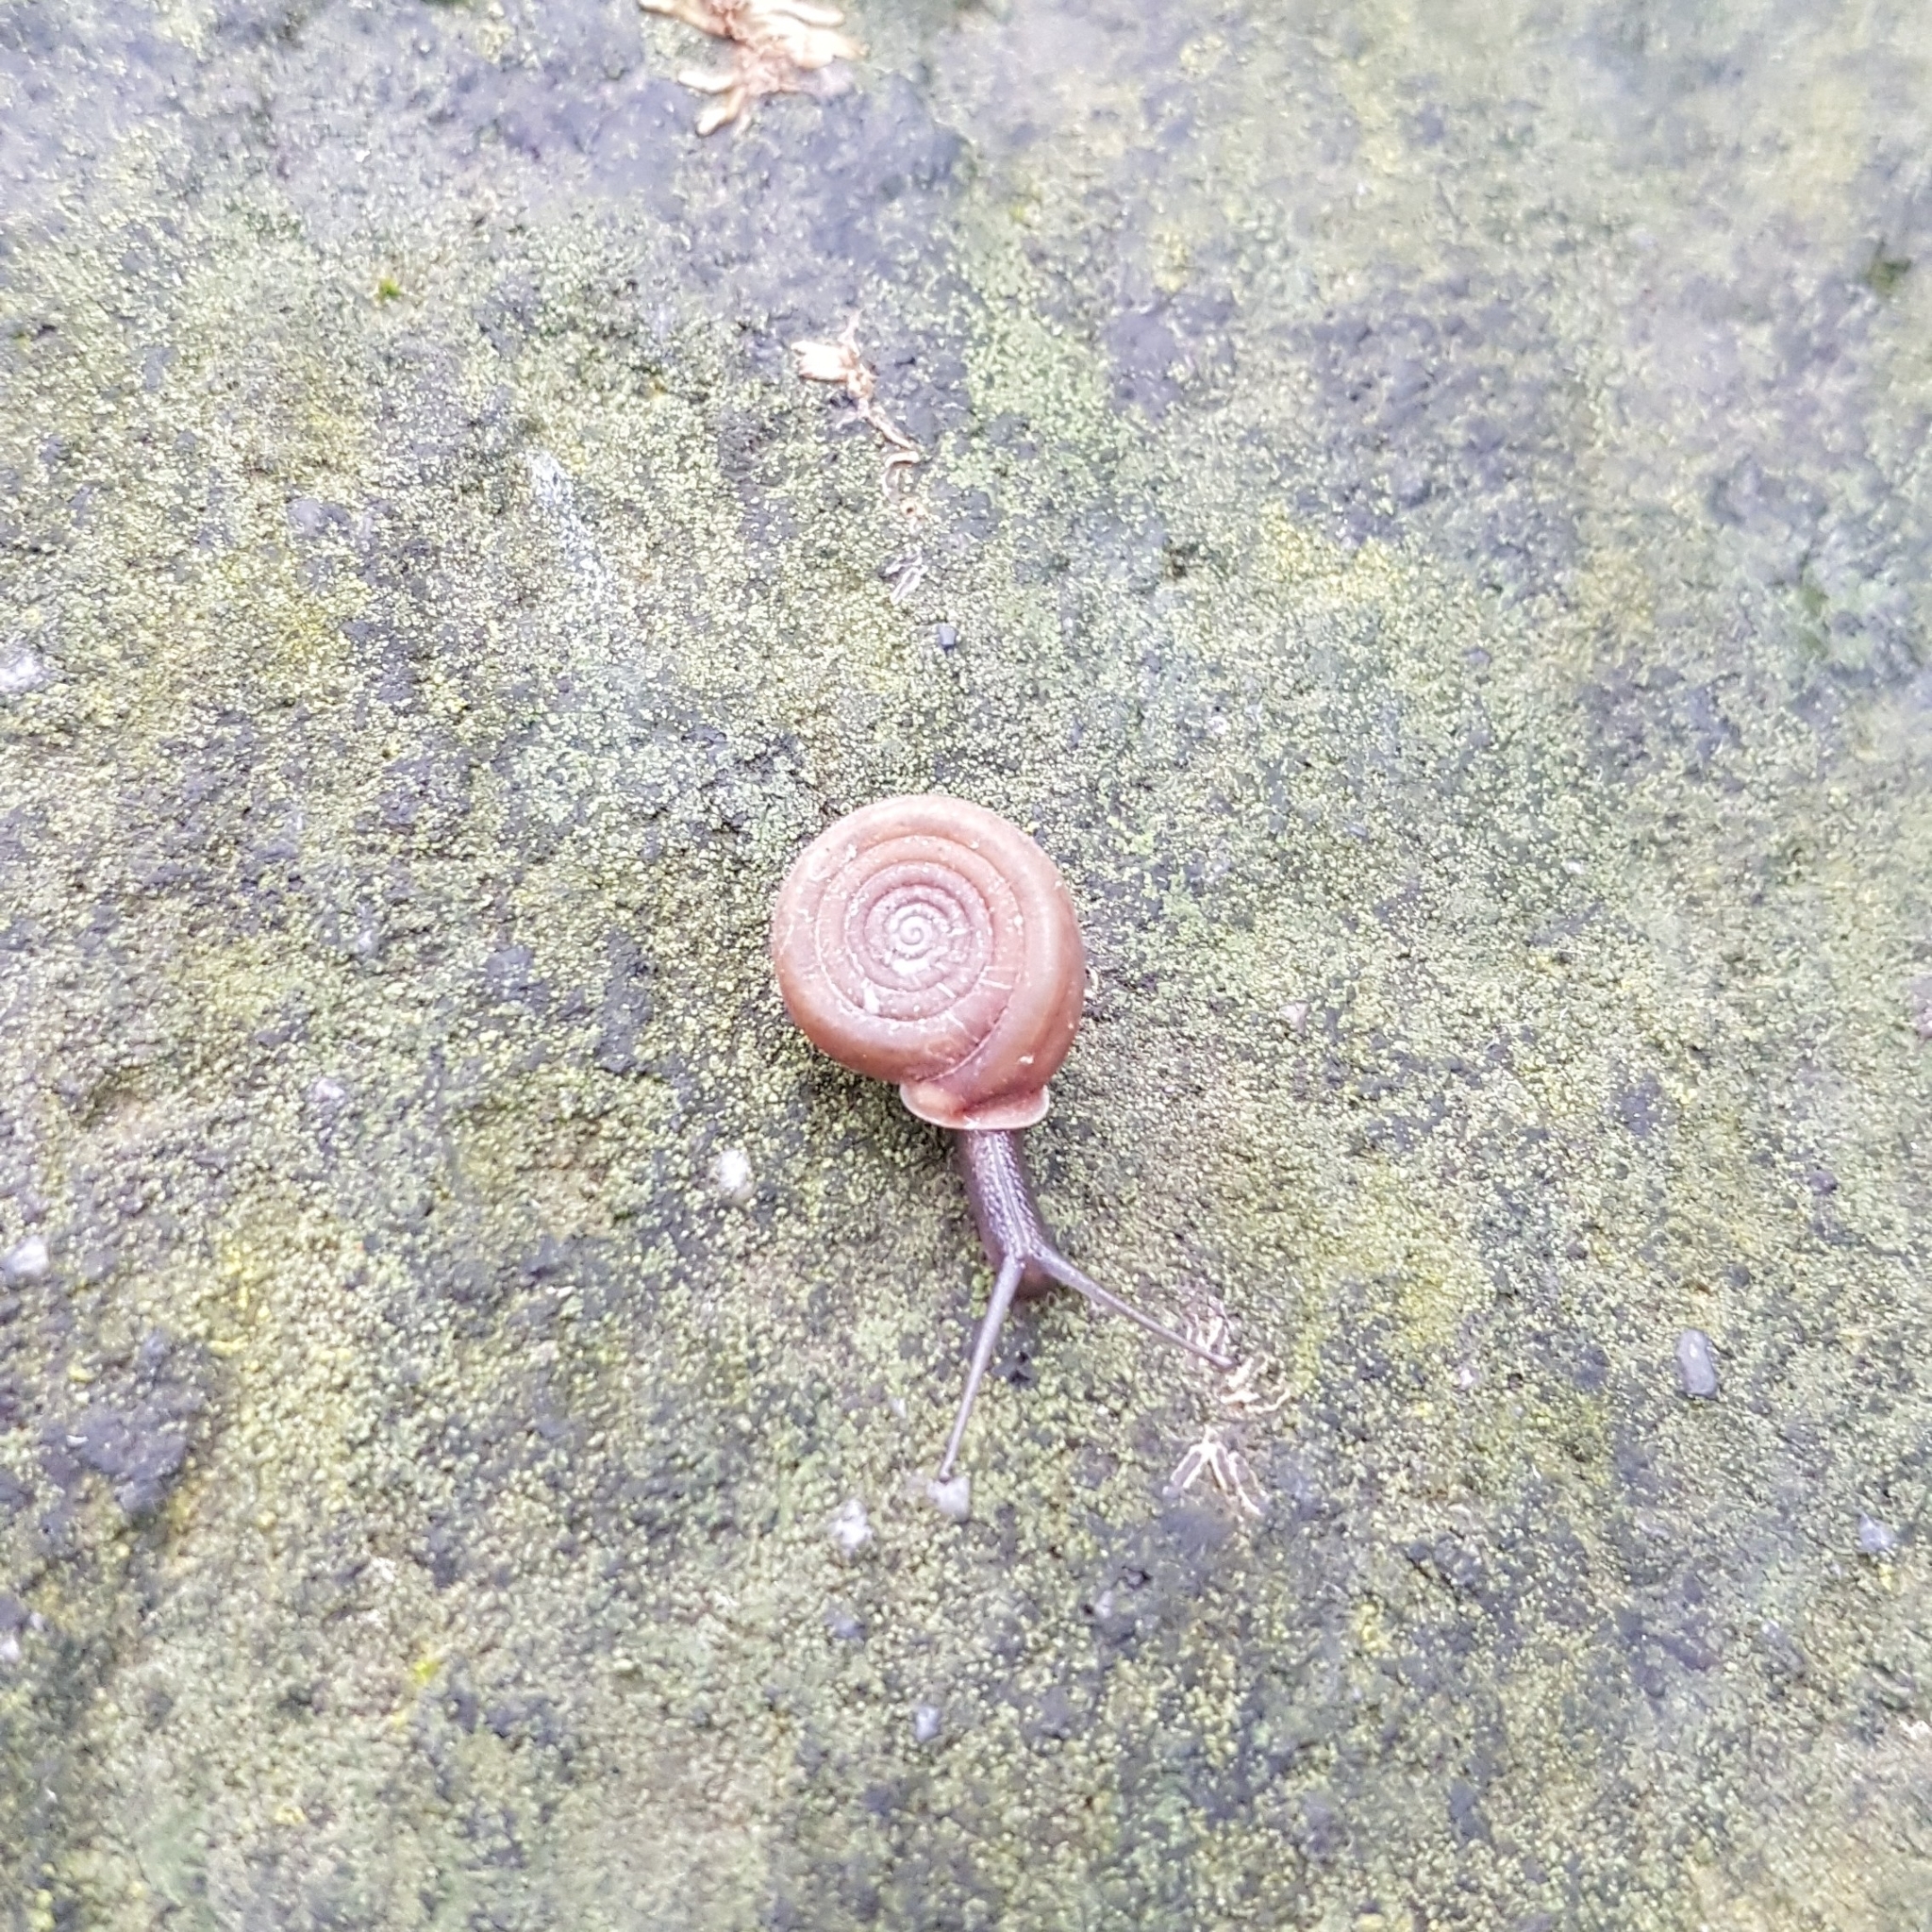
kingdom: Animalia
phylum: Mollusca
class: Gastropoda
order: Stylommatophora
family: Helicodontidae
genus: Helicodonta
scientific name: Helicodonta obvoluta
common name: Cheese snail
